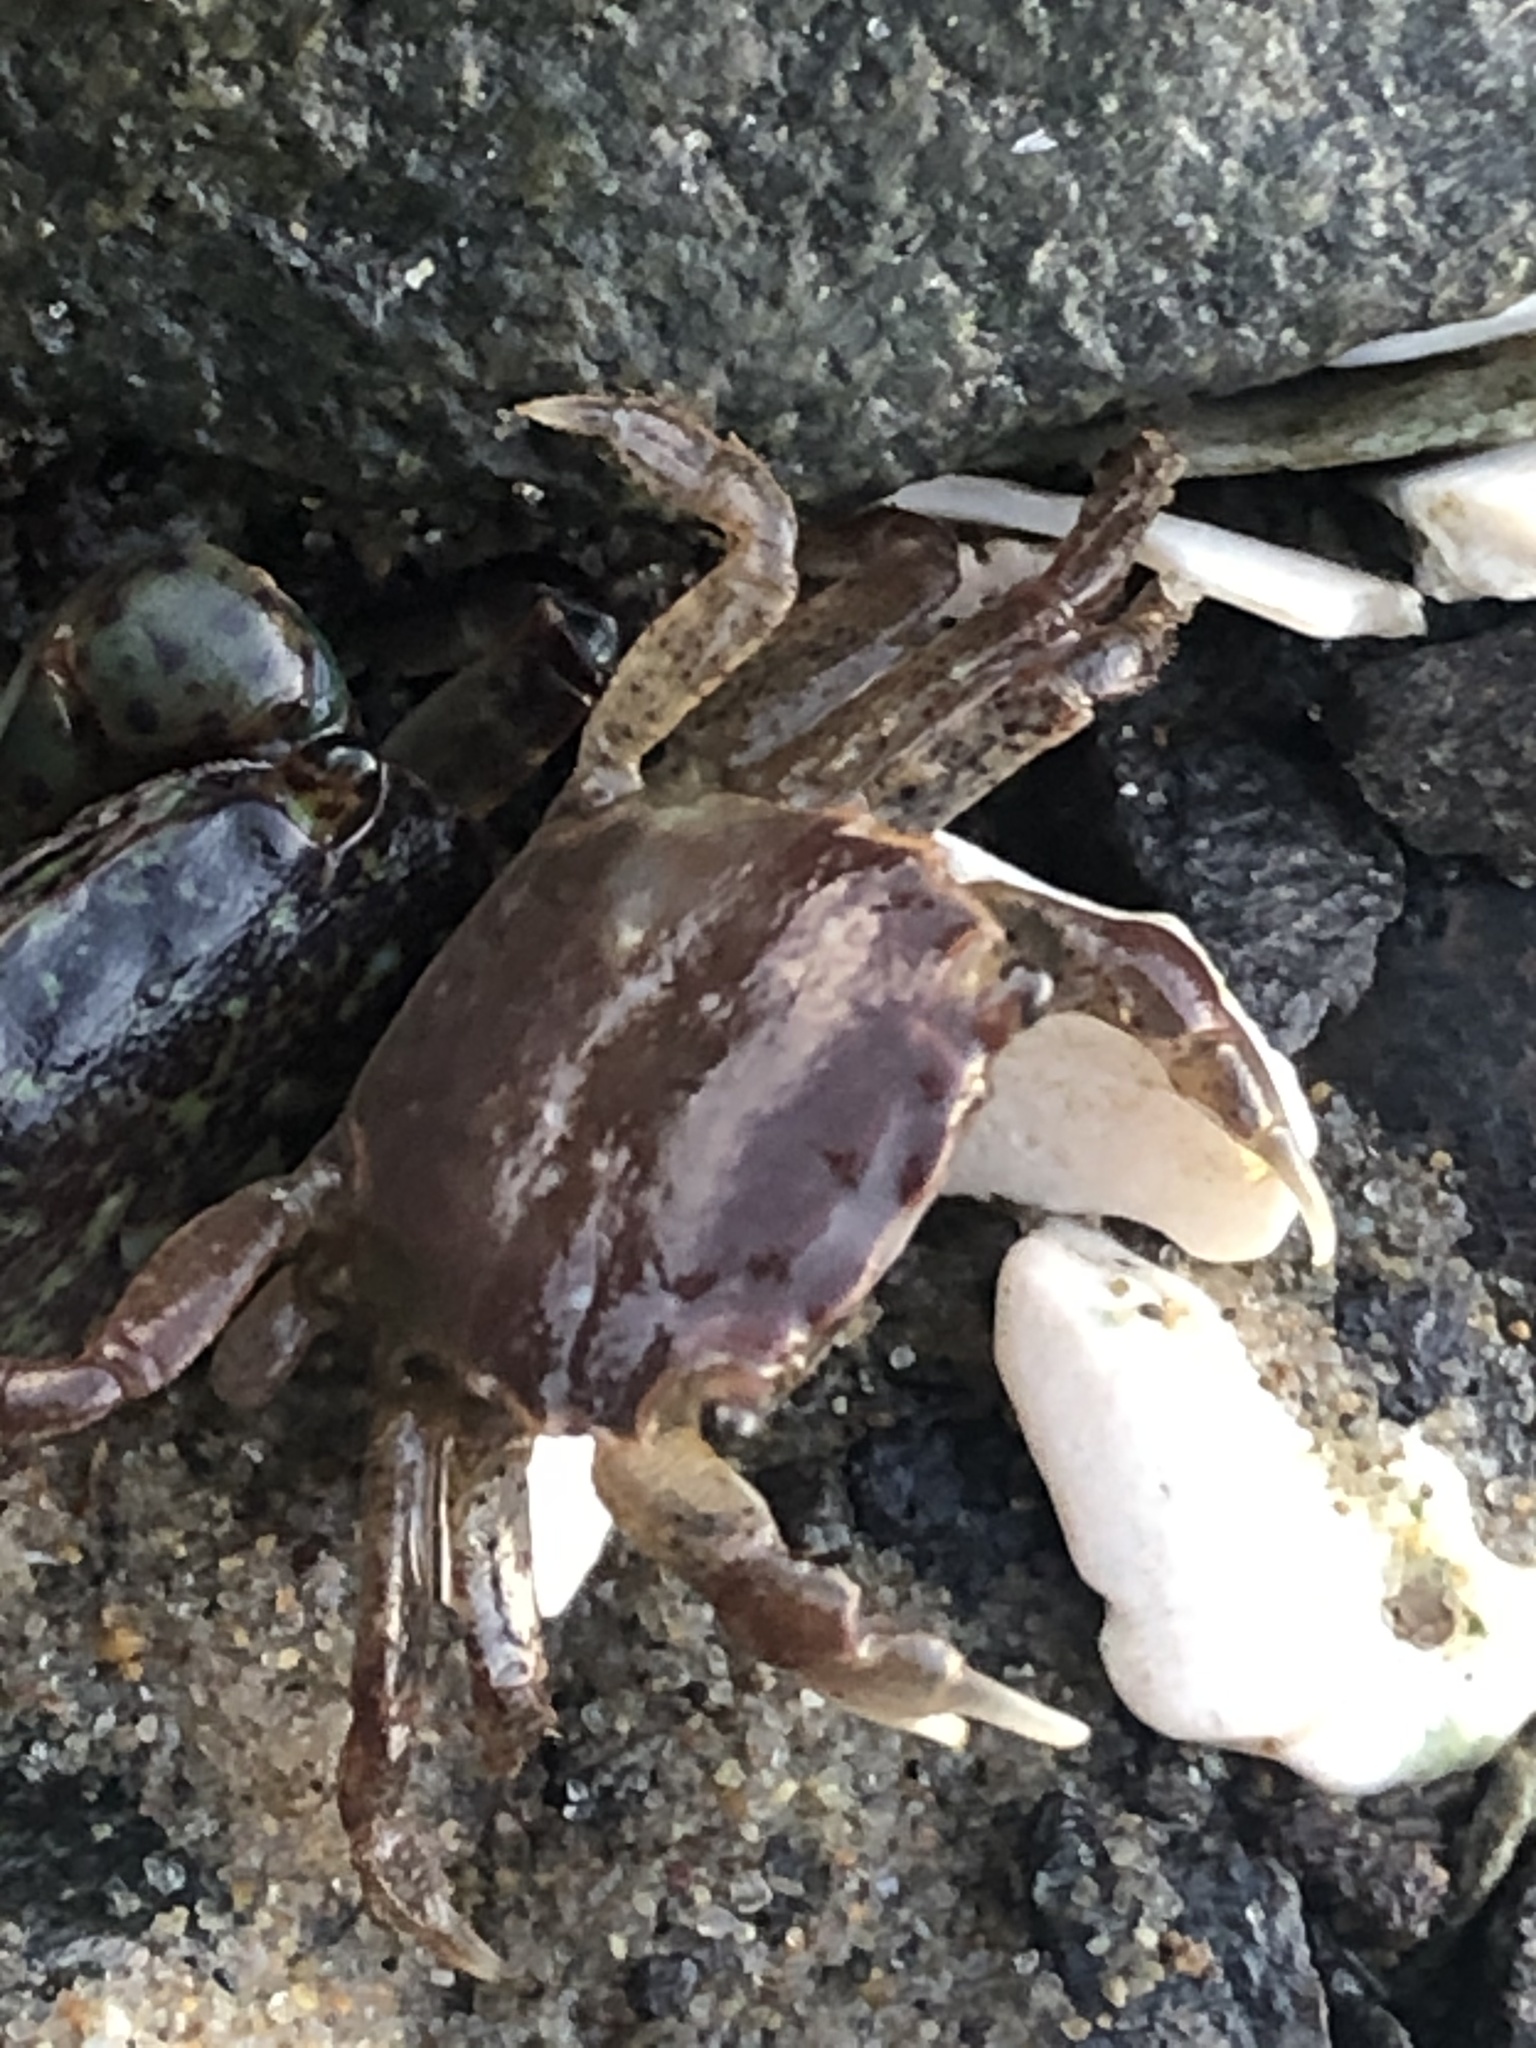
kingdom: Animalia
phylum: Arthropoda
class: Malacostraca
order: Decapoda
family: Varunidae
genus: Hemigrapsus
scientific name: Hemigrapsus oregonensis
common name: Yellow shore crab
